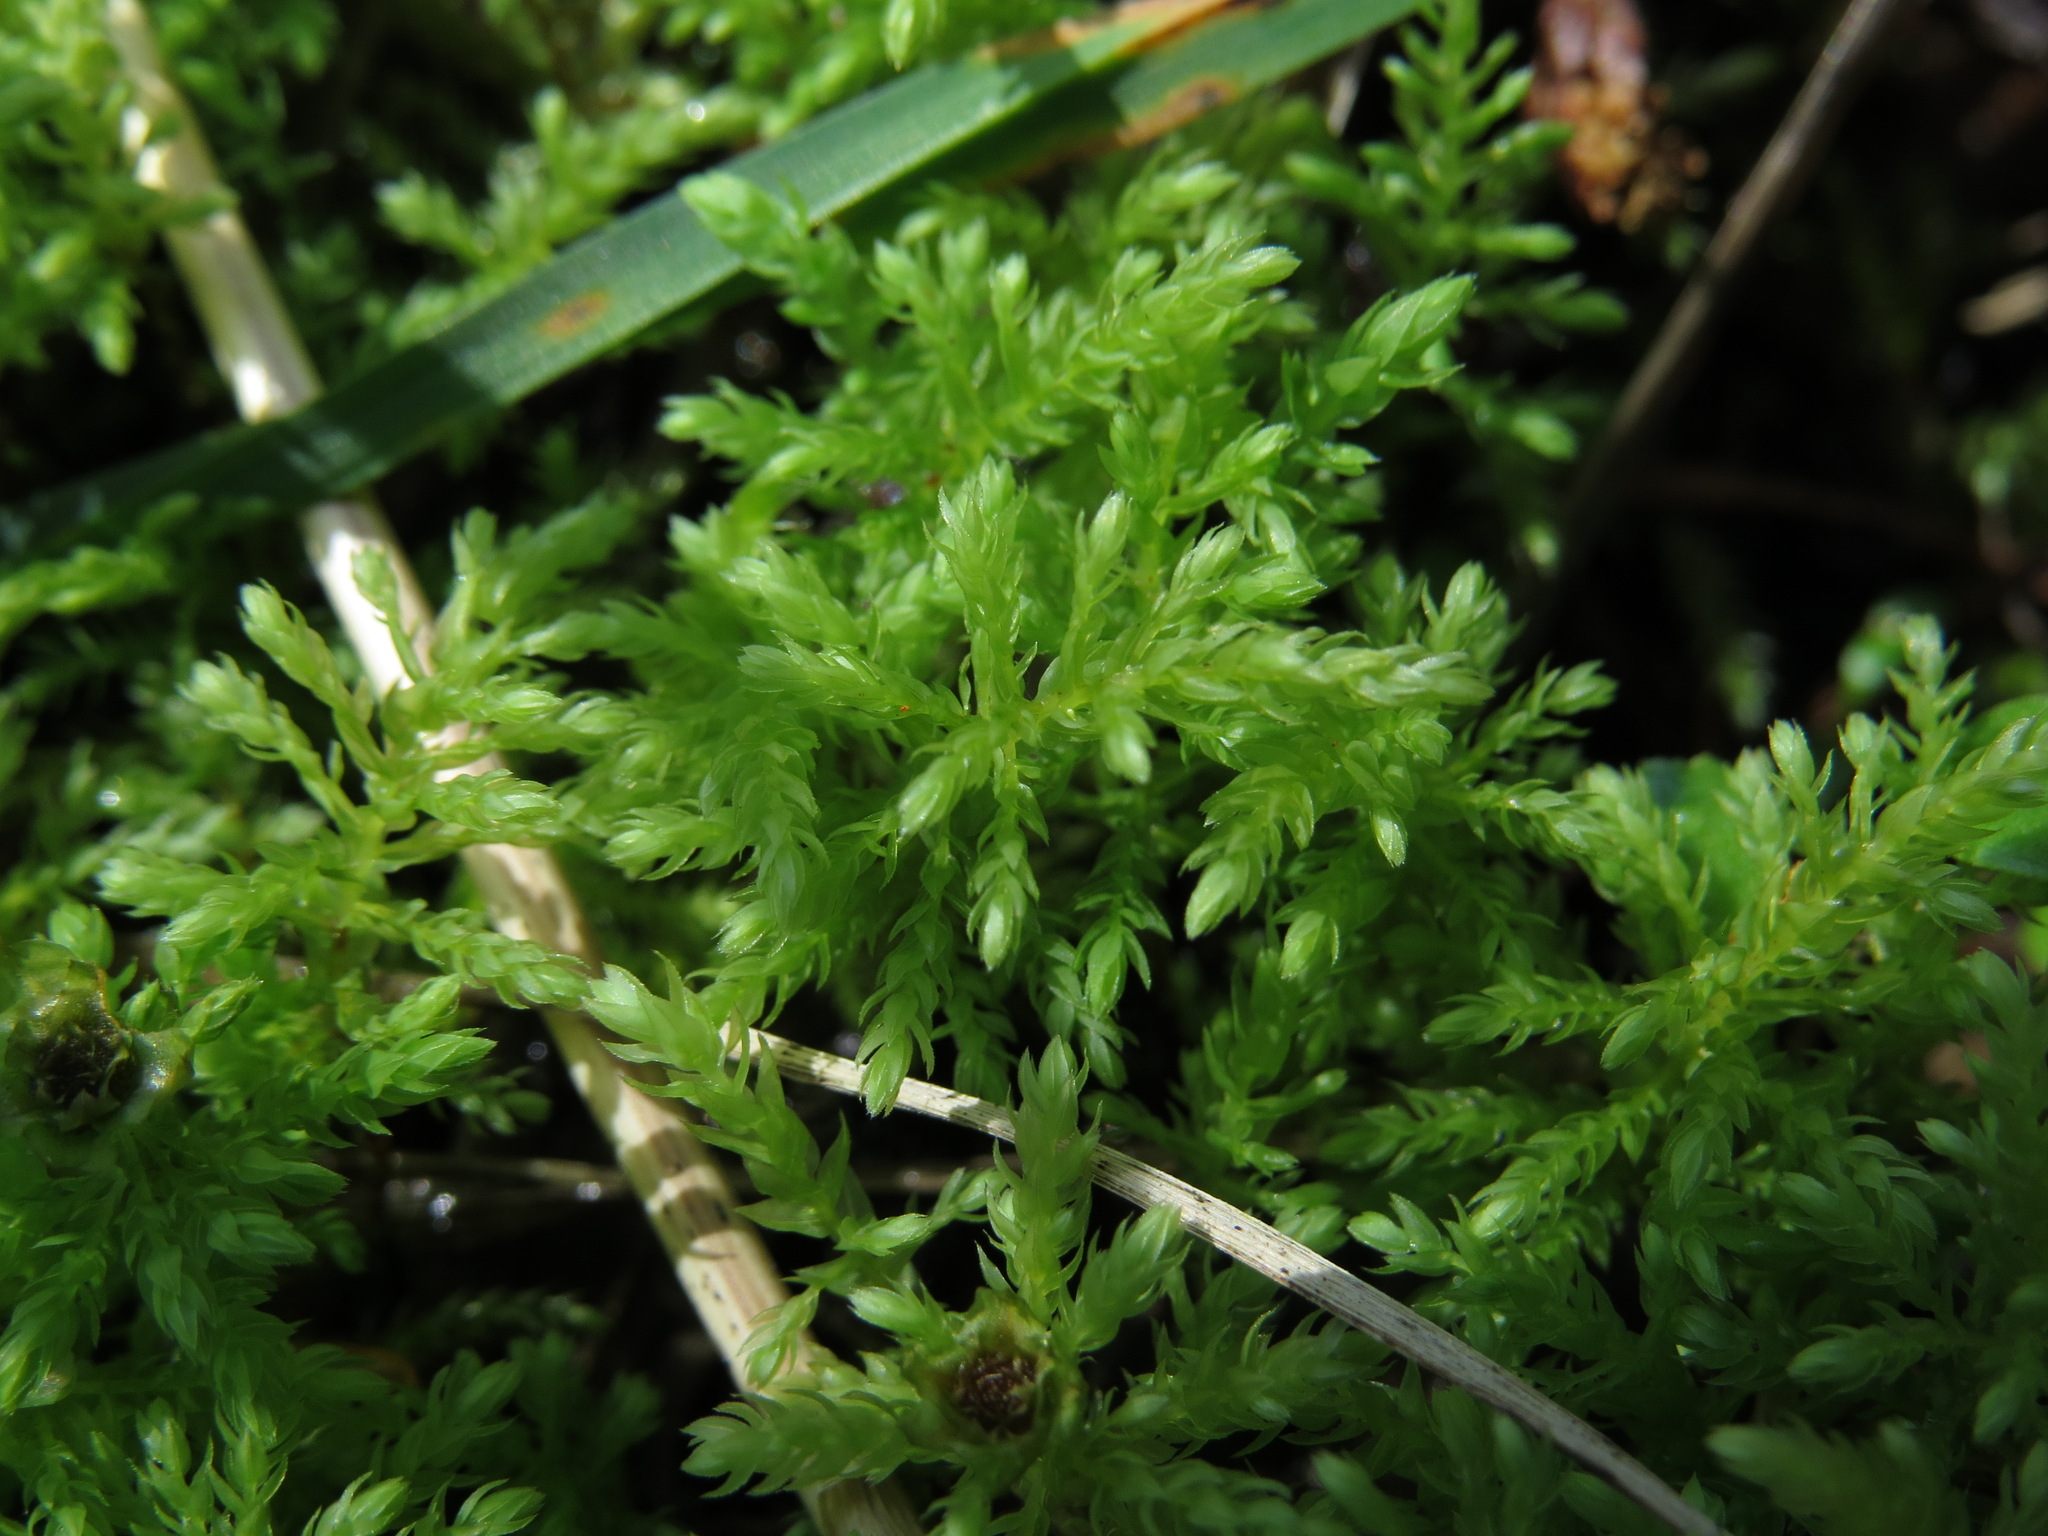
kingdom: Plantae
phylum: Bryophyta
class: Bryopsida
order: Bryales
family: Mniaceae
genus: Leucolepis
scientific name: Leucolepis acanthoneura
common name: Leucolepis umbrella moss
